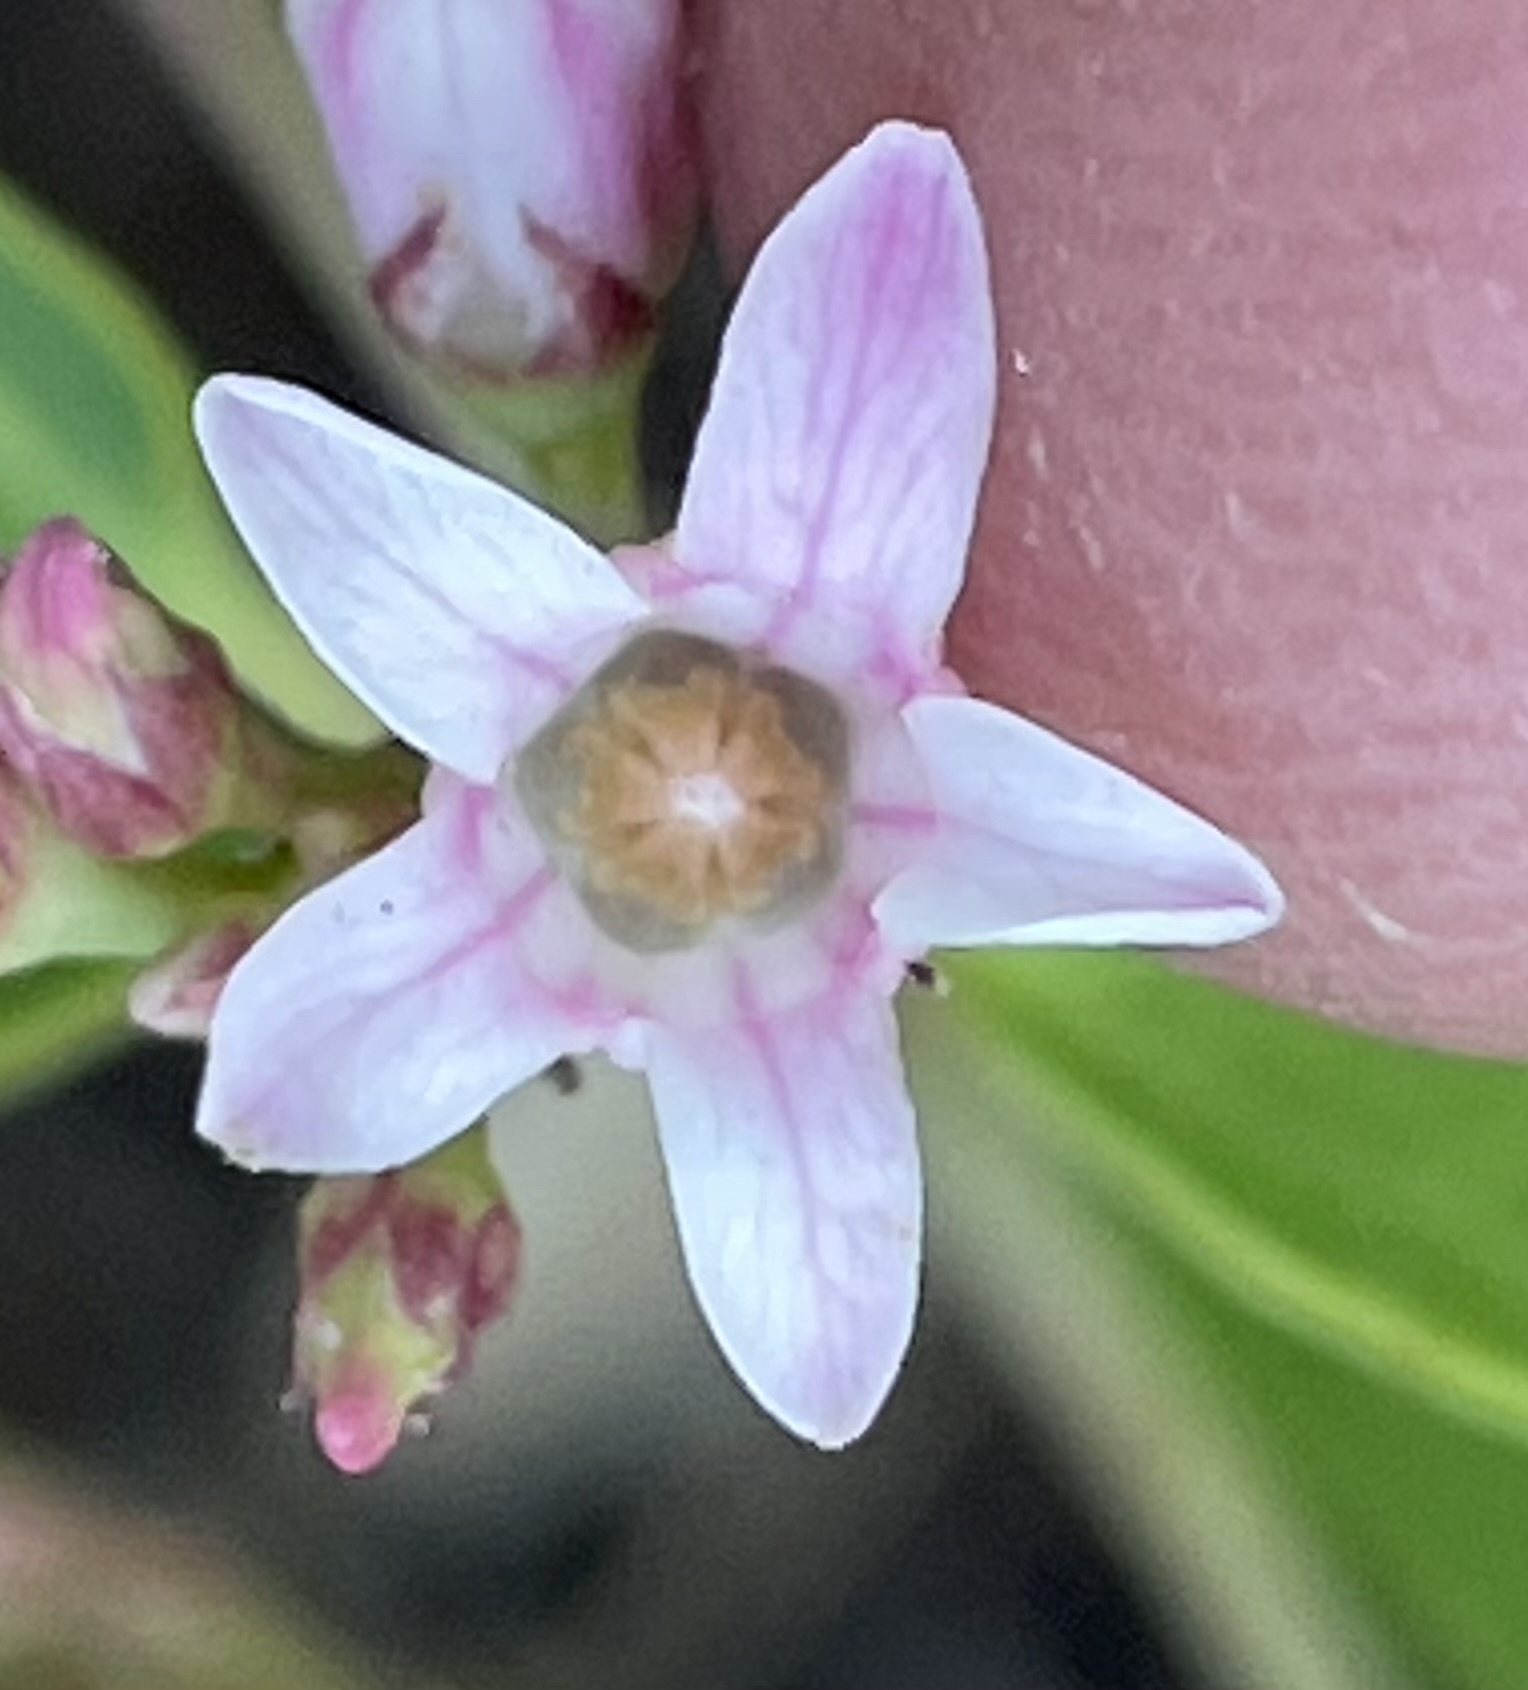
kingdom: Plantae
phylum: Tracheophyta
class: Magnoliopsida
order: Gentianales
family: Apocynaceae
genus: Apocynum
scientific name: Apocynum androsaemifolium
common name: Spreading dogbane
